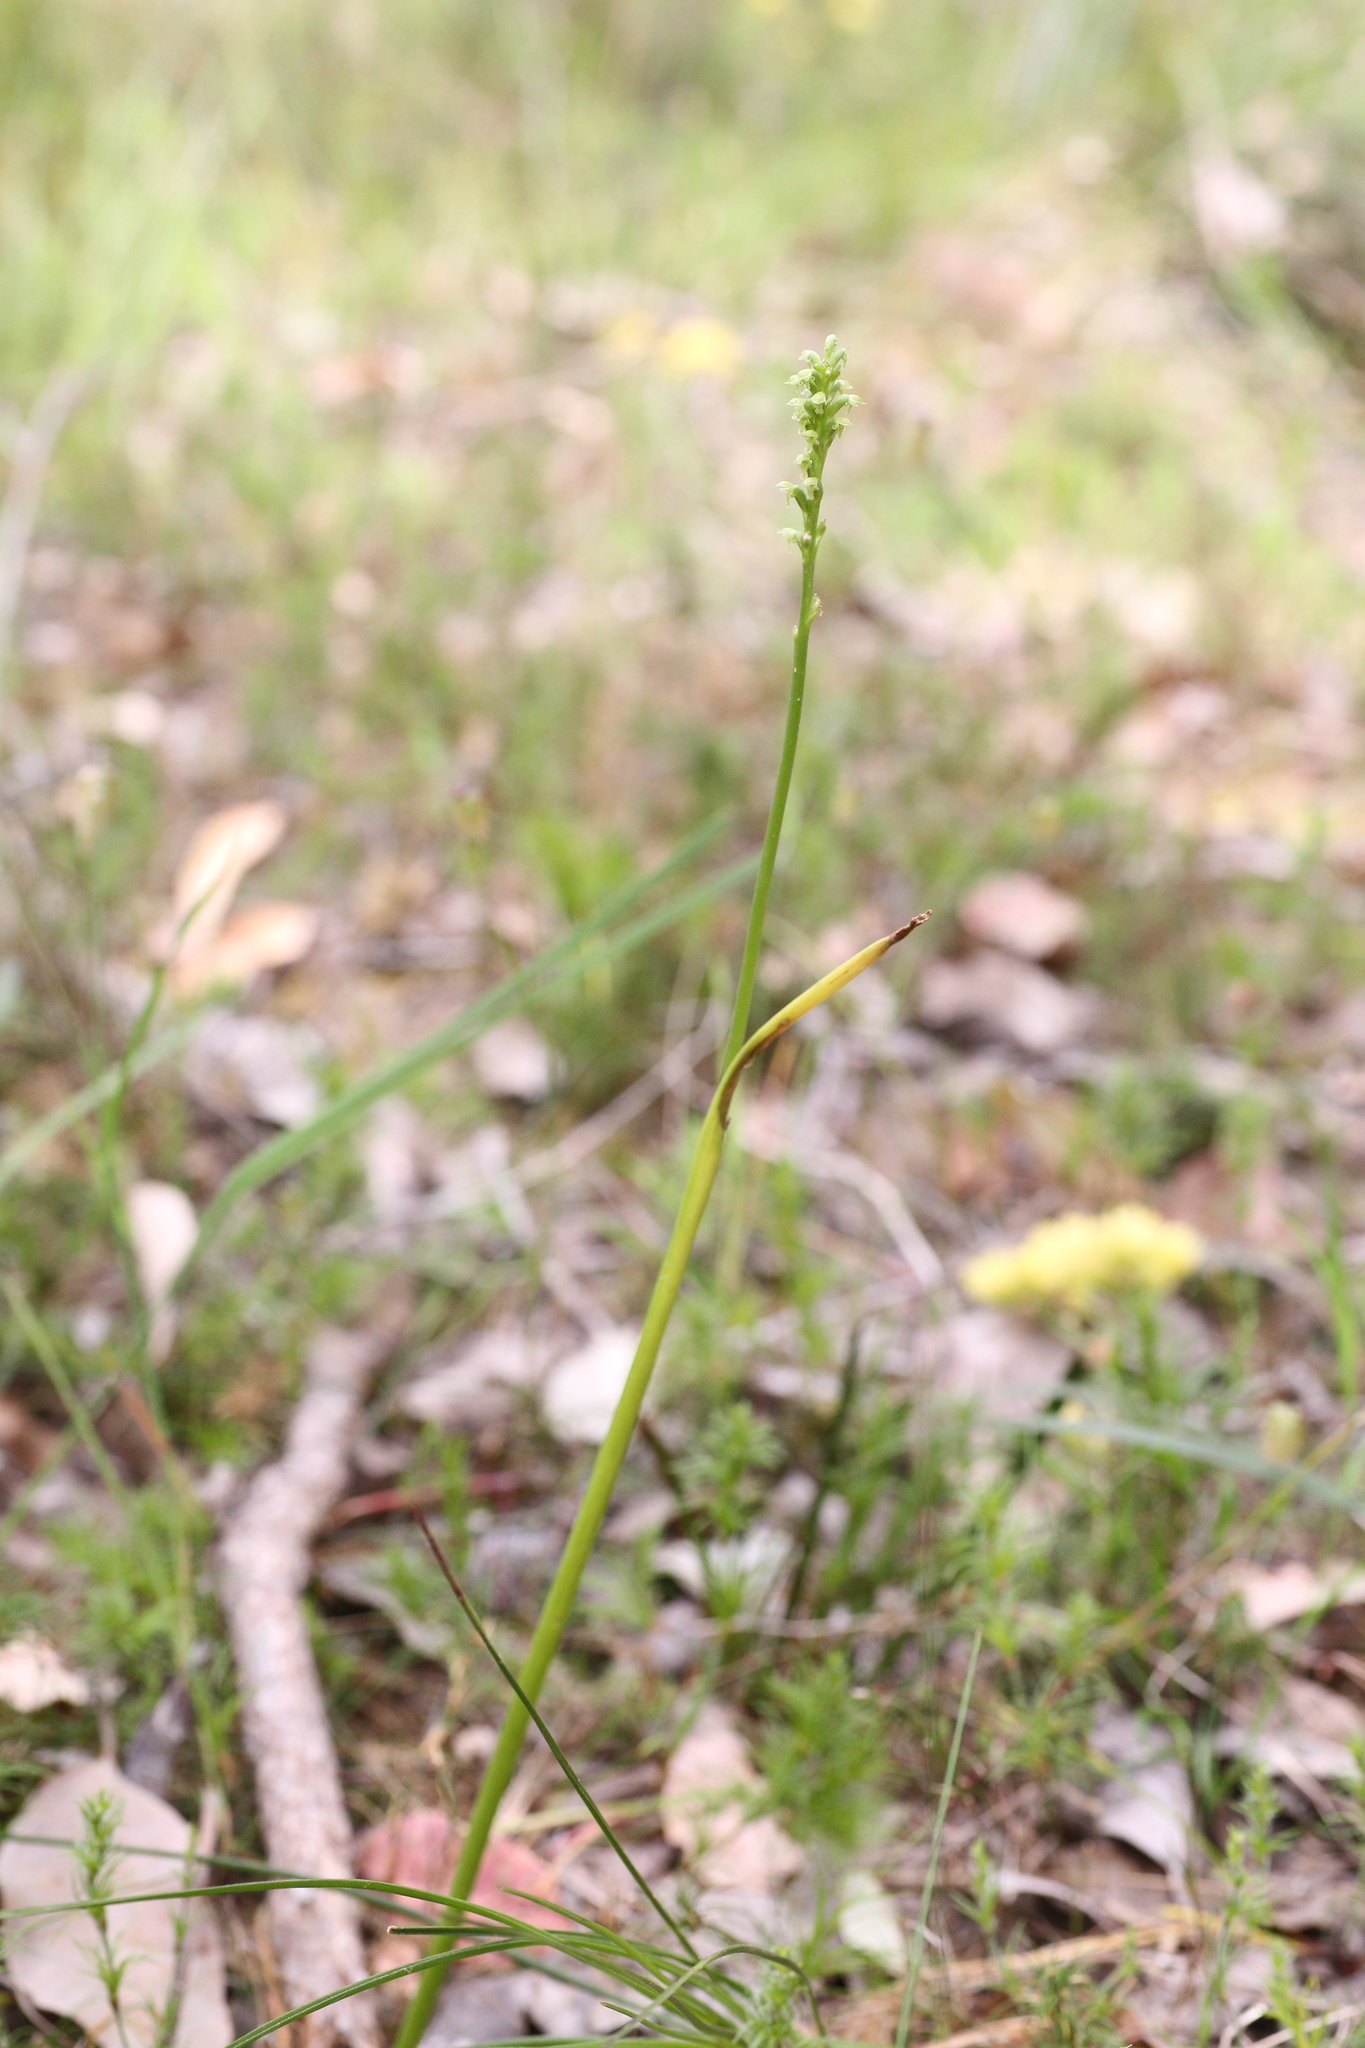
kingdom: Plantae
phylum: Tracheophyta
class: Liliopsida
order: Asparagales
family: Orchidaceae
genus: Microtis
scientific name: Microtis alboviridis
